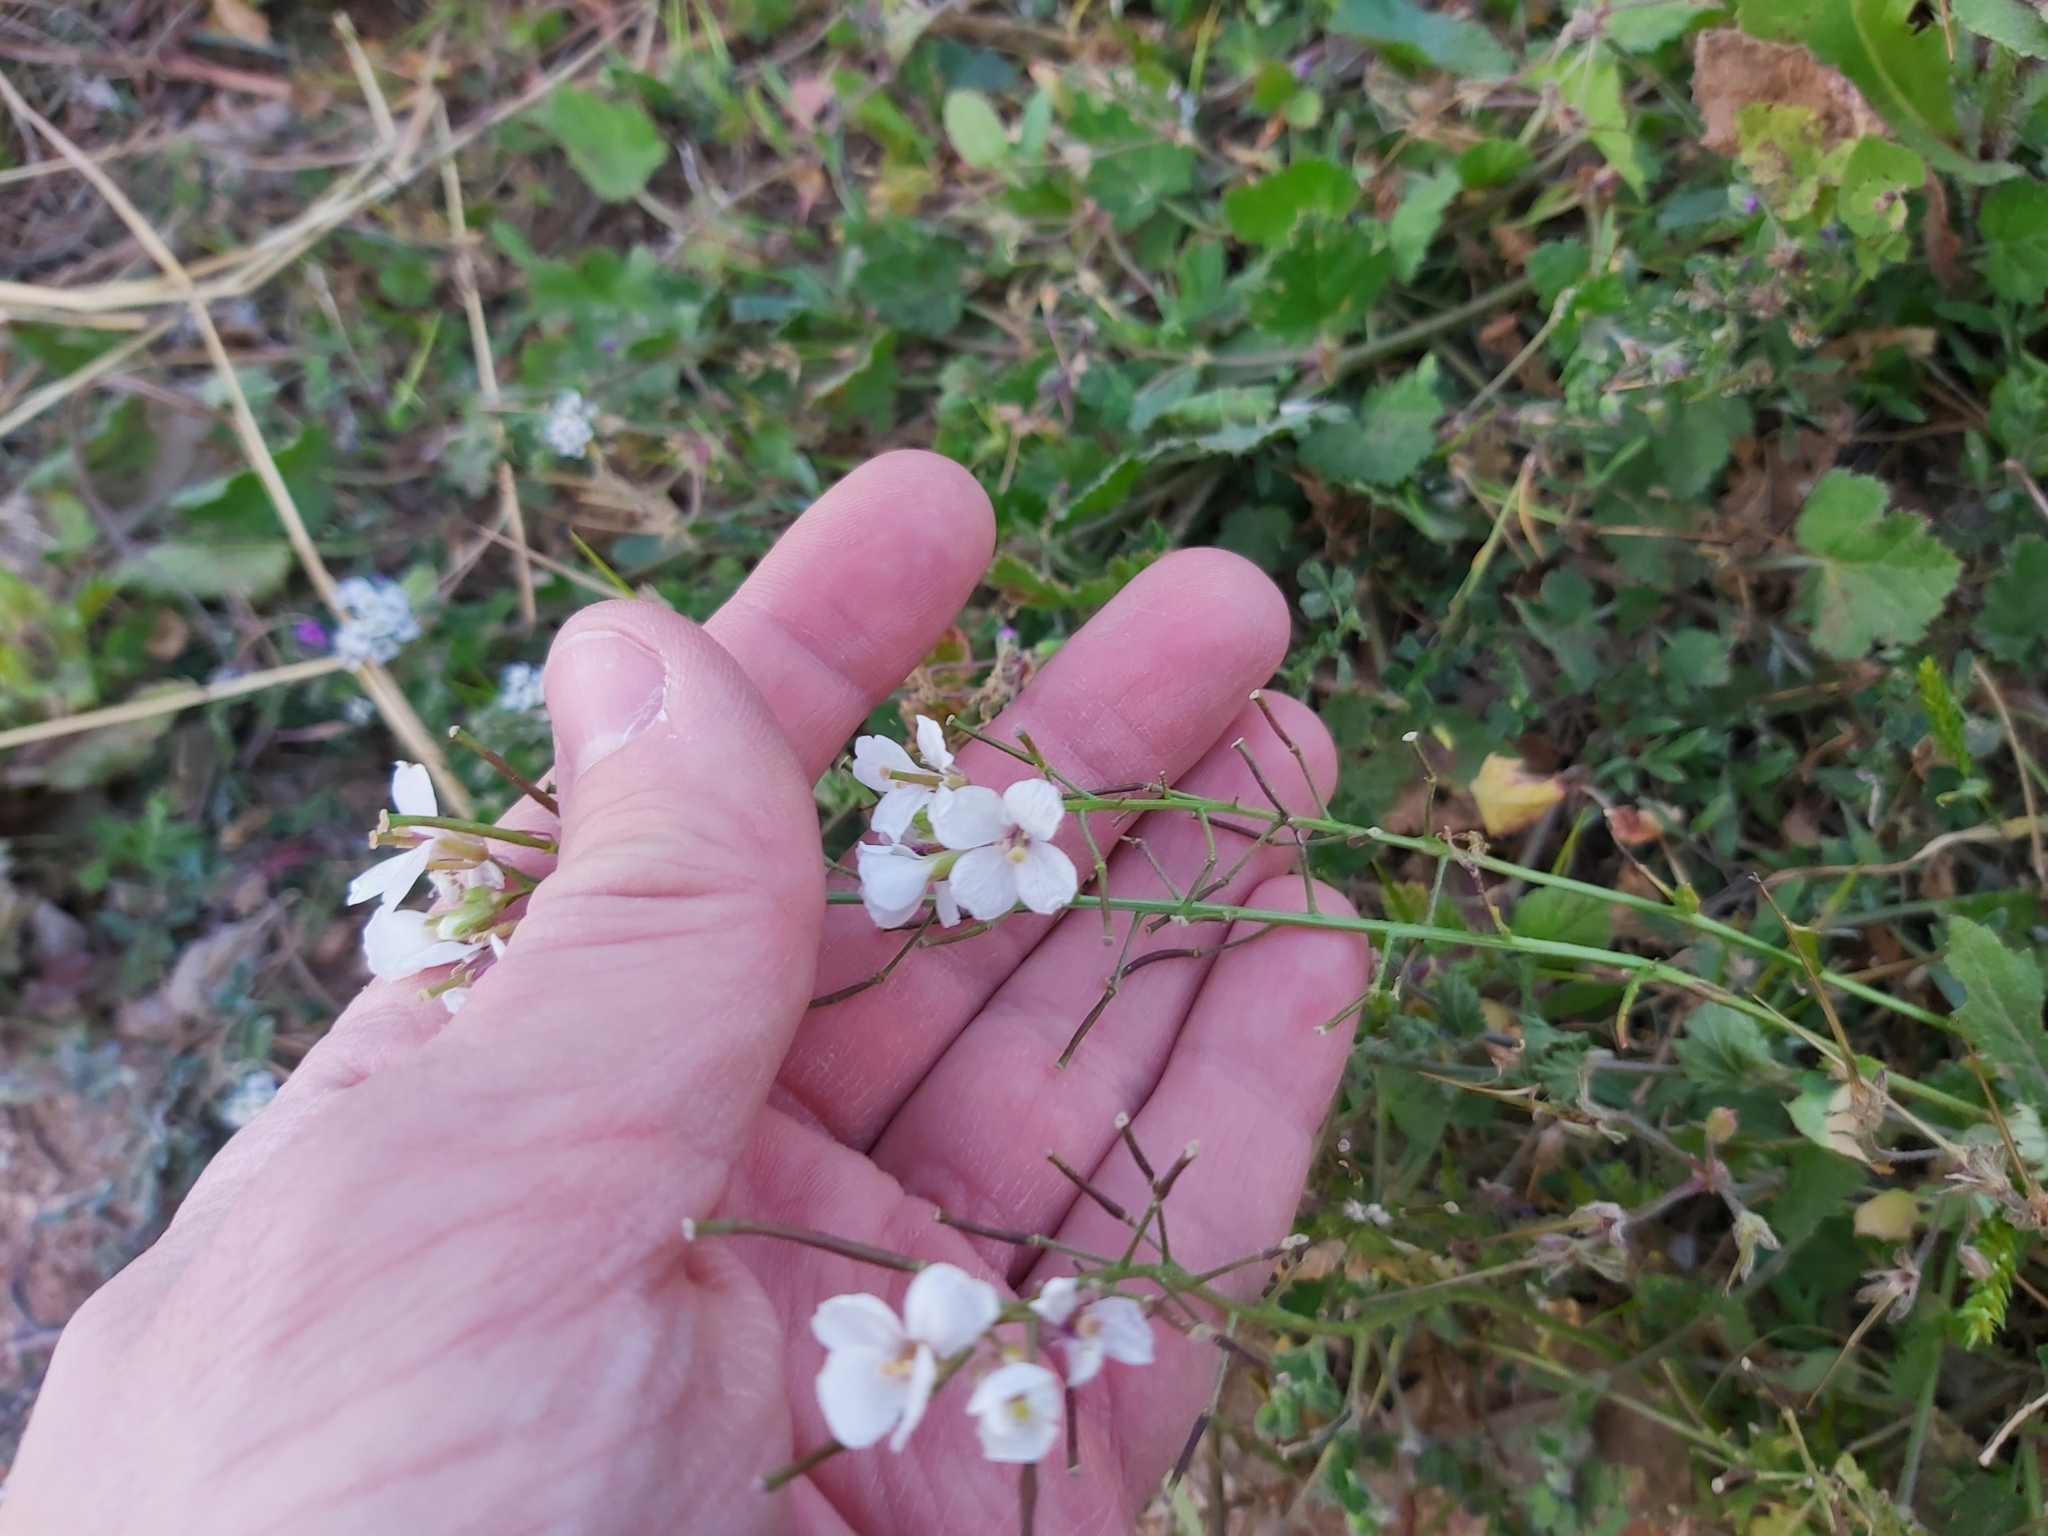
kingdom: Plantae
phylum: Tracheophyta
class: Magnoliopsida
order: Brassicales
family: Brassicaceae
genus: Diplotaxis
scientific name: Diplotaxis erucoides
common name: White rocket
